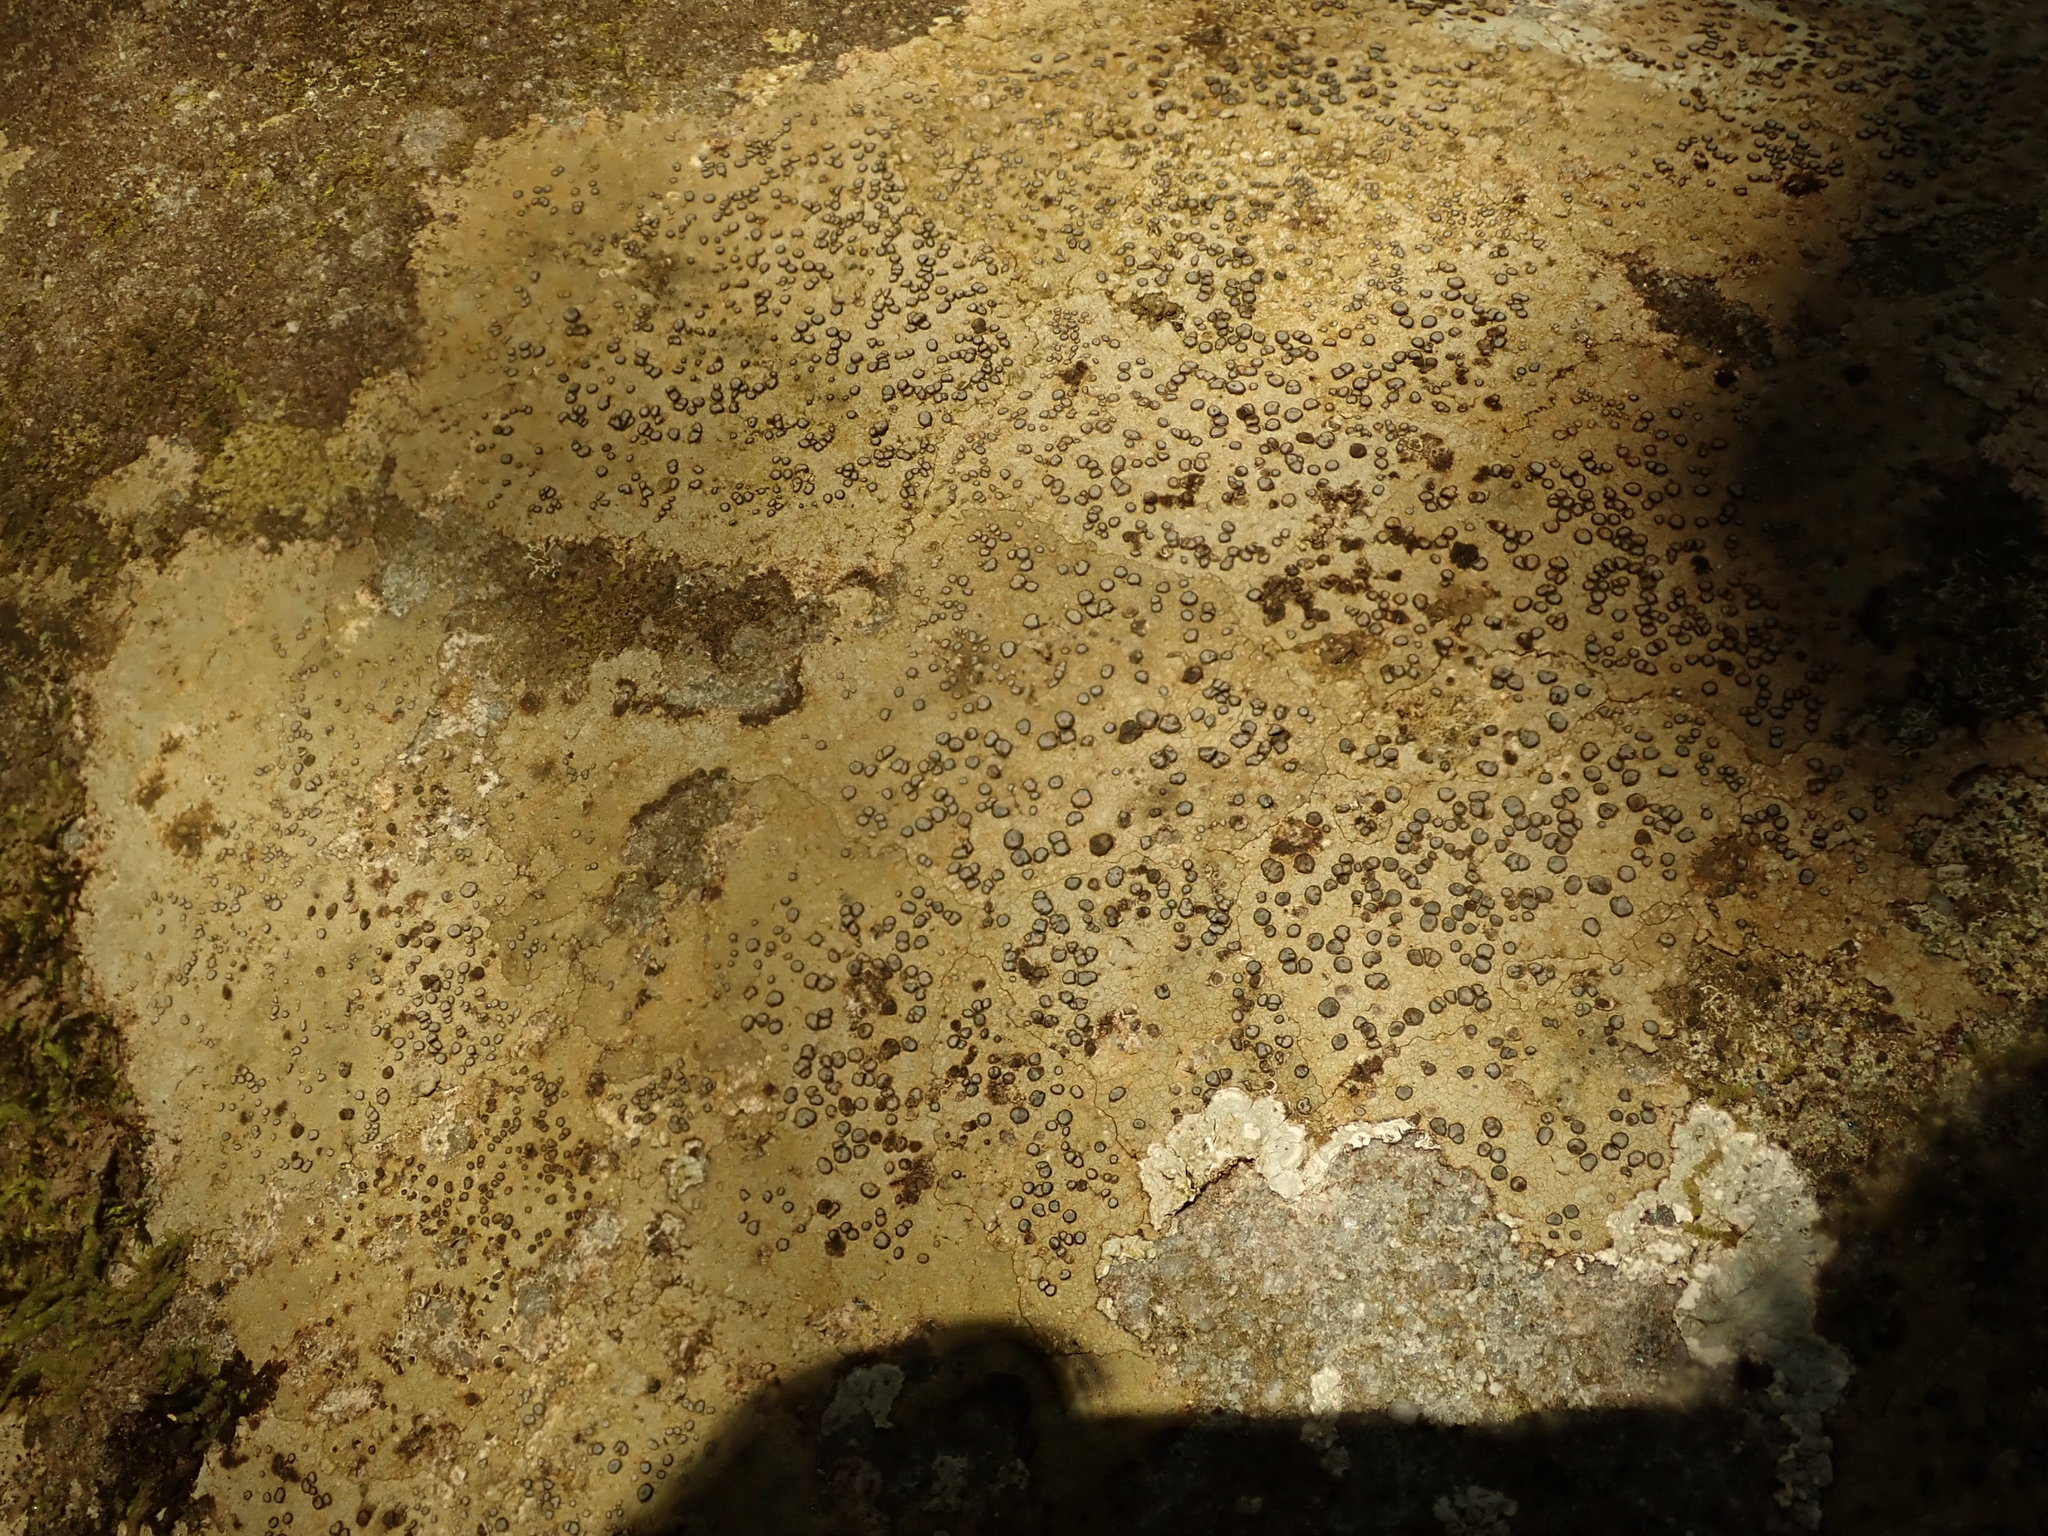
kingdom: Fungi
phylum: Ascomycota
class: Lecanoromycetes
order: Lecideales
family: Lecideaceae
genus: Porpidia
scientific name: Porpidia albocaerulescens
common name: Smokey-eyed boulder lichen
